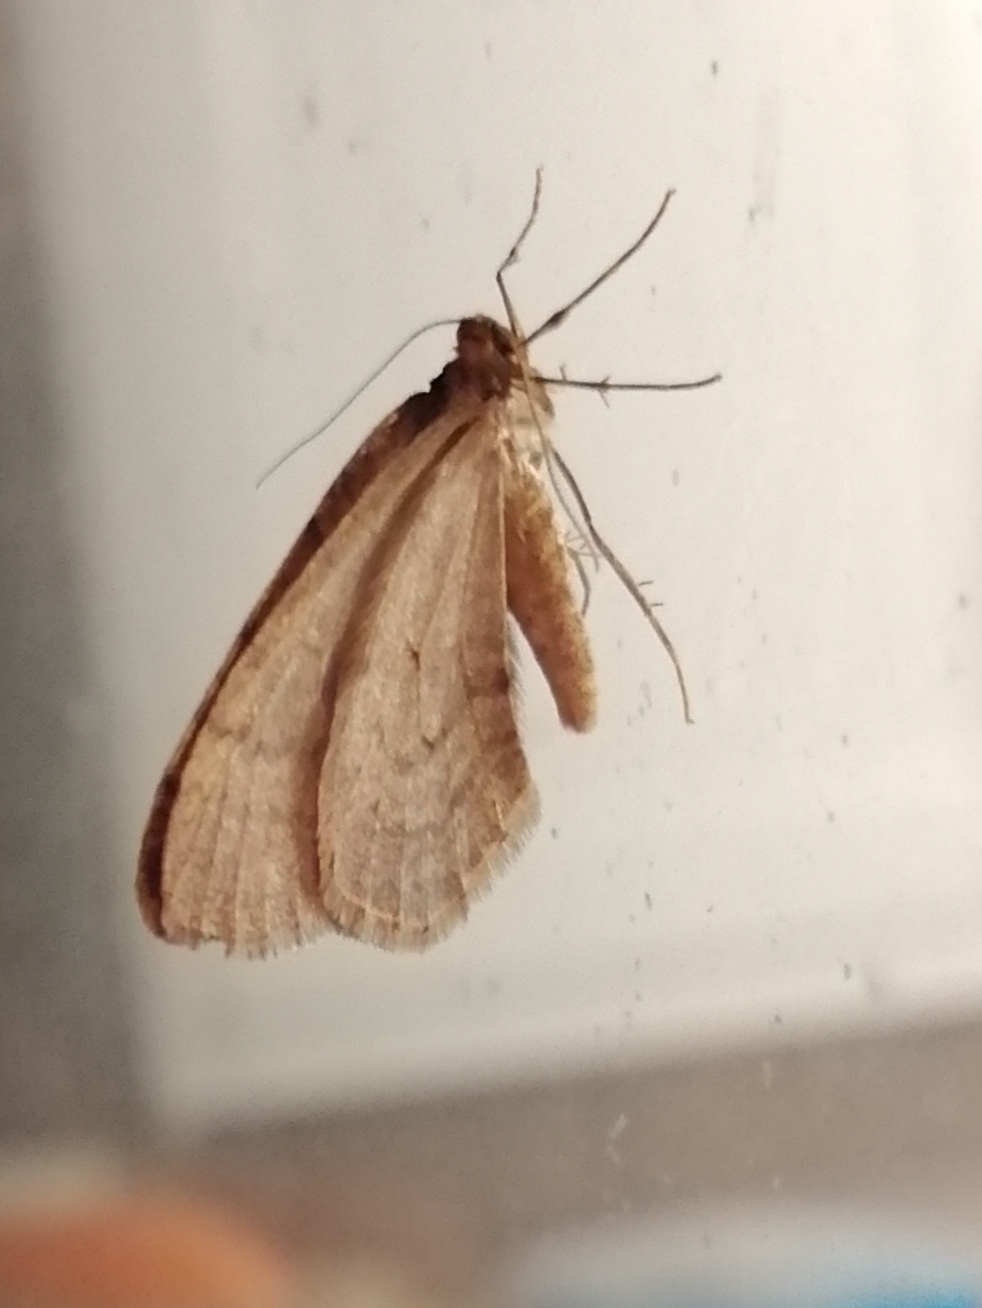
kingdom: Animalia
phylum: Arthropoda
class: Insecta
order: Lepidoptera
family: Geometridae
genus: Operophtera
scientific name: Operophtera brumata
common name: Winter moth
